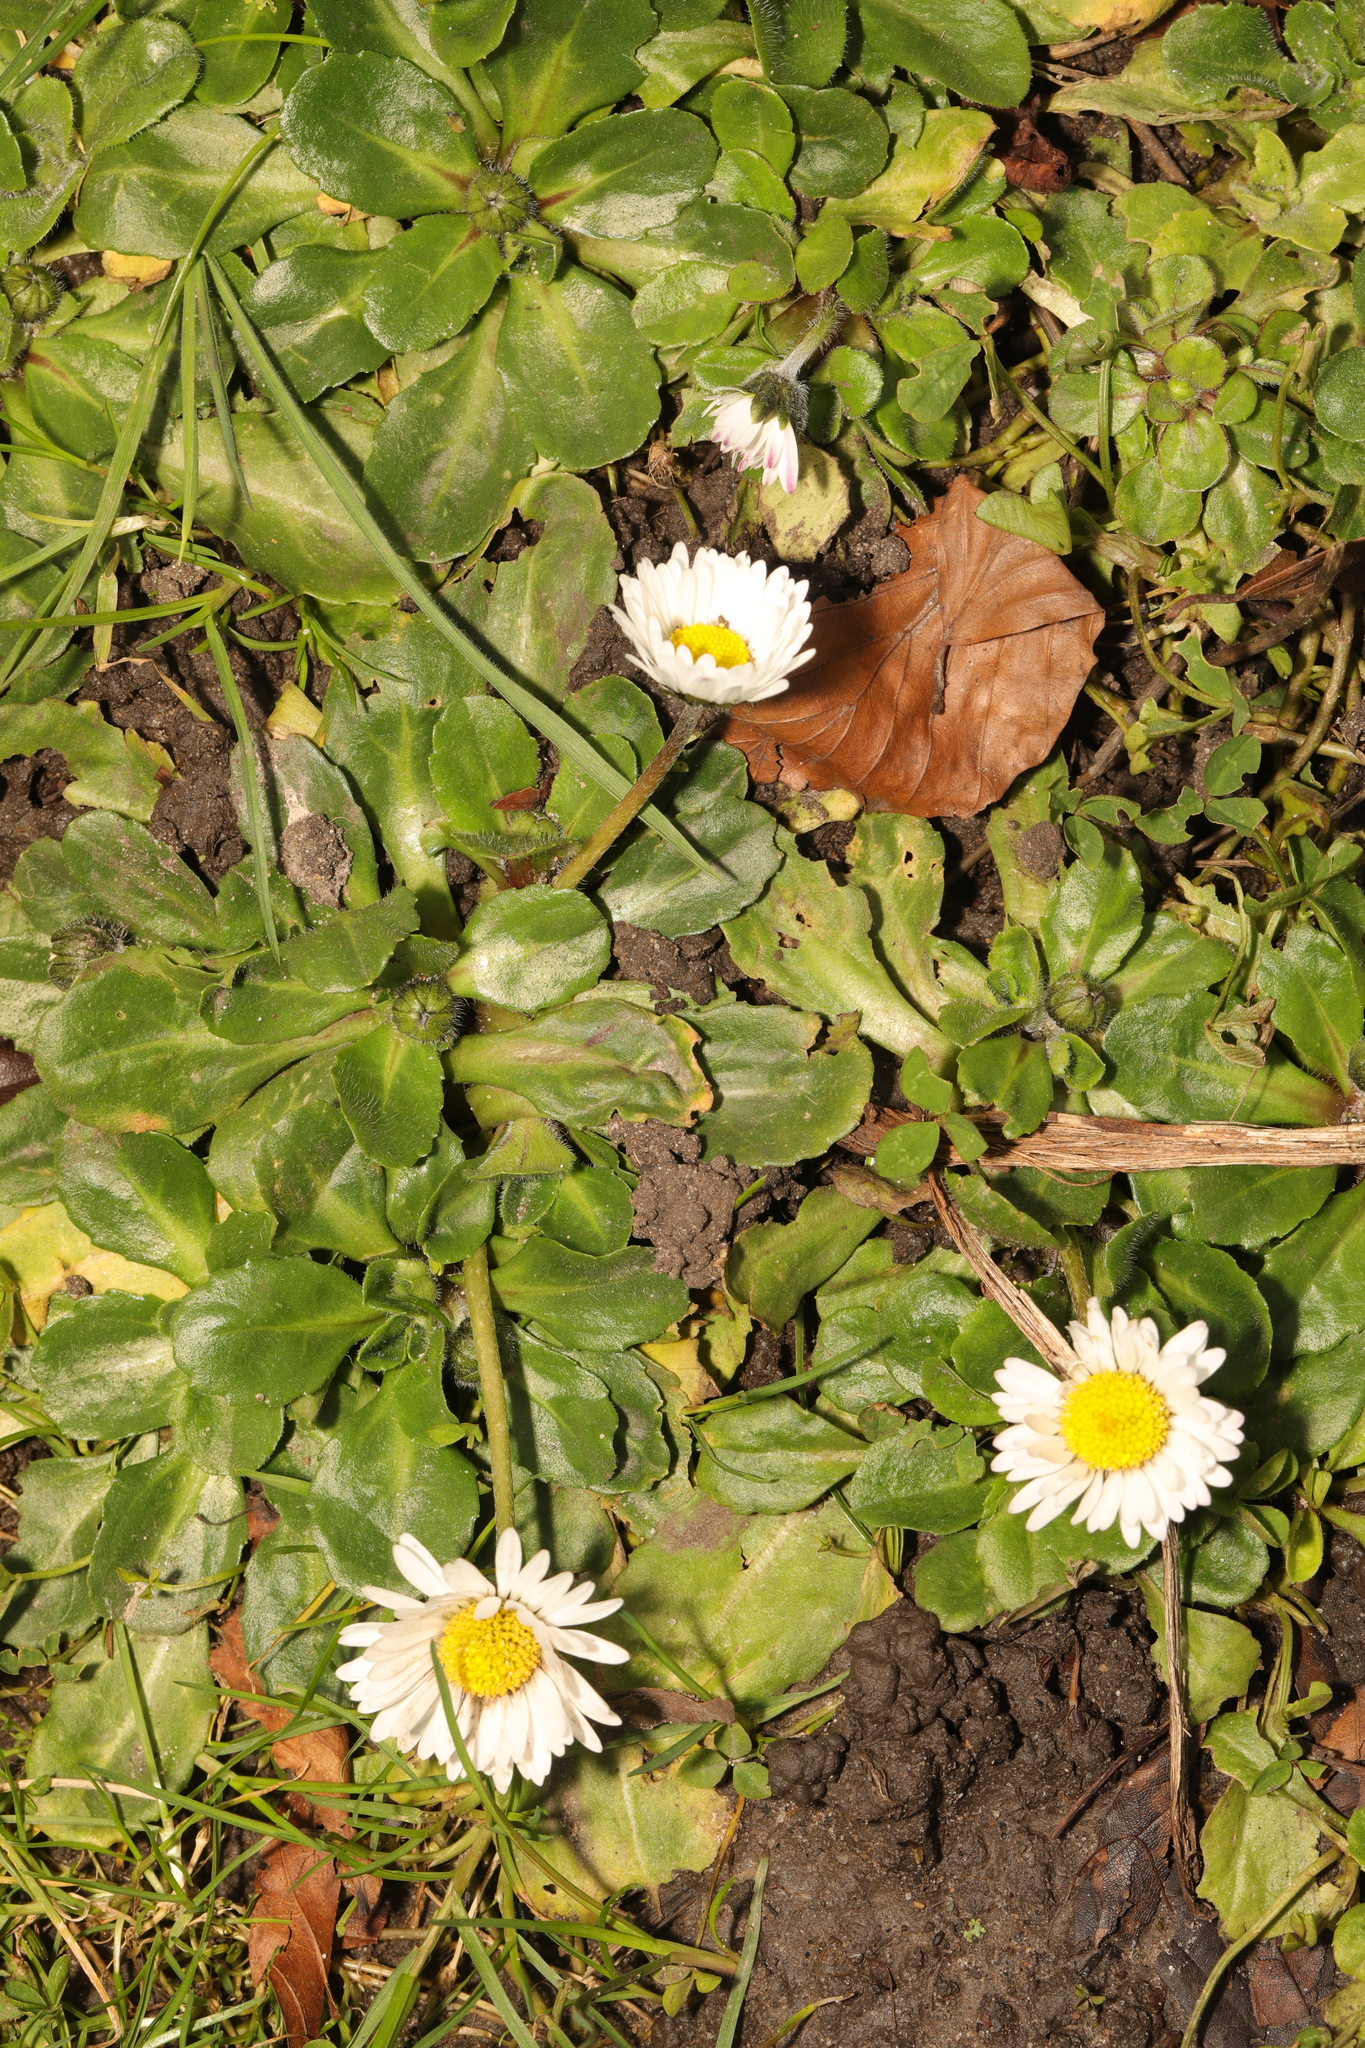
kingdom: Plantae
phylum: Tracheophyta
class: Magnoliopsida
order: Asterales
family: Asteraceae
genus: Bellis
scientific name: Bellis perennis
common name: Lawndaisy
